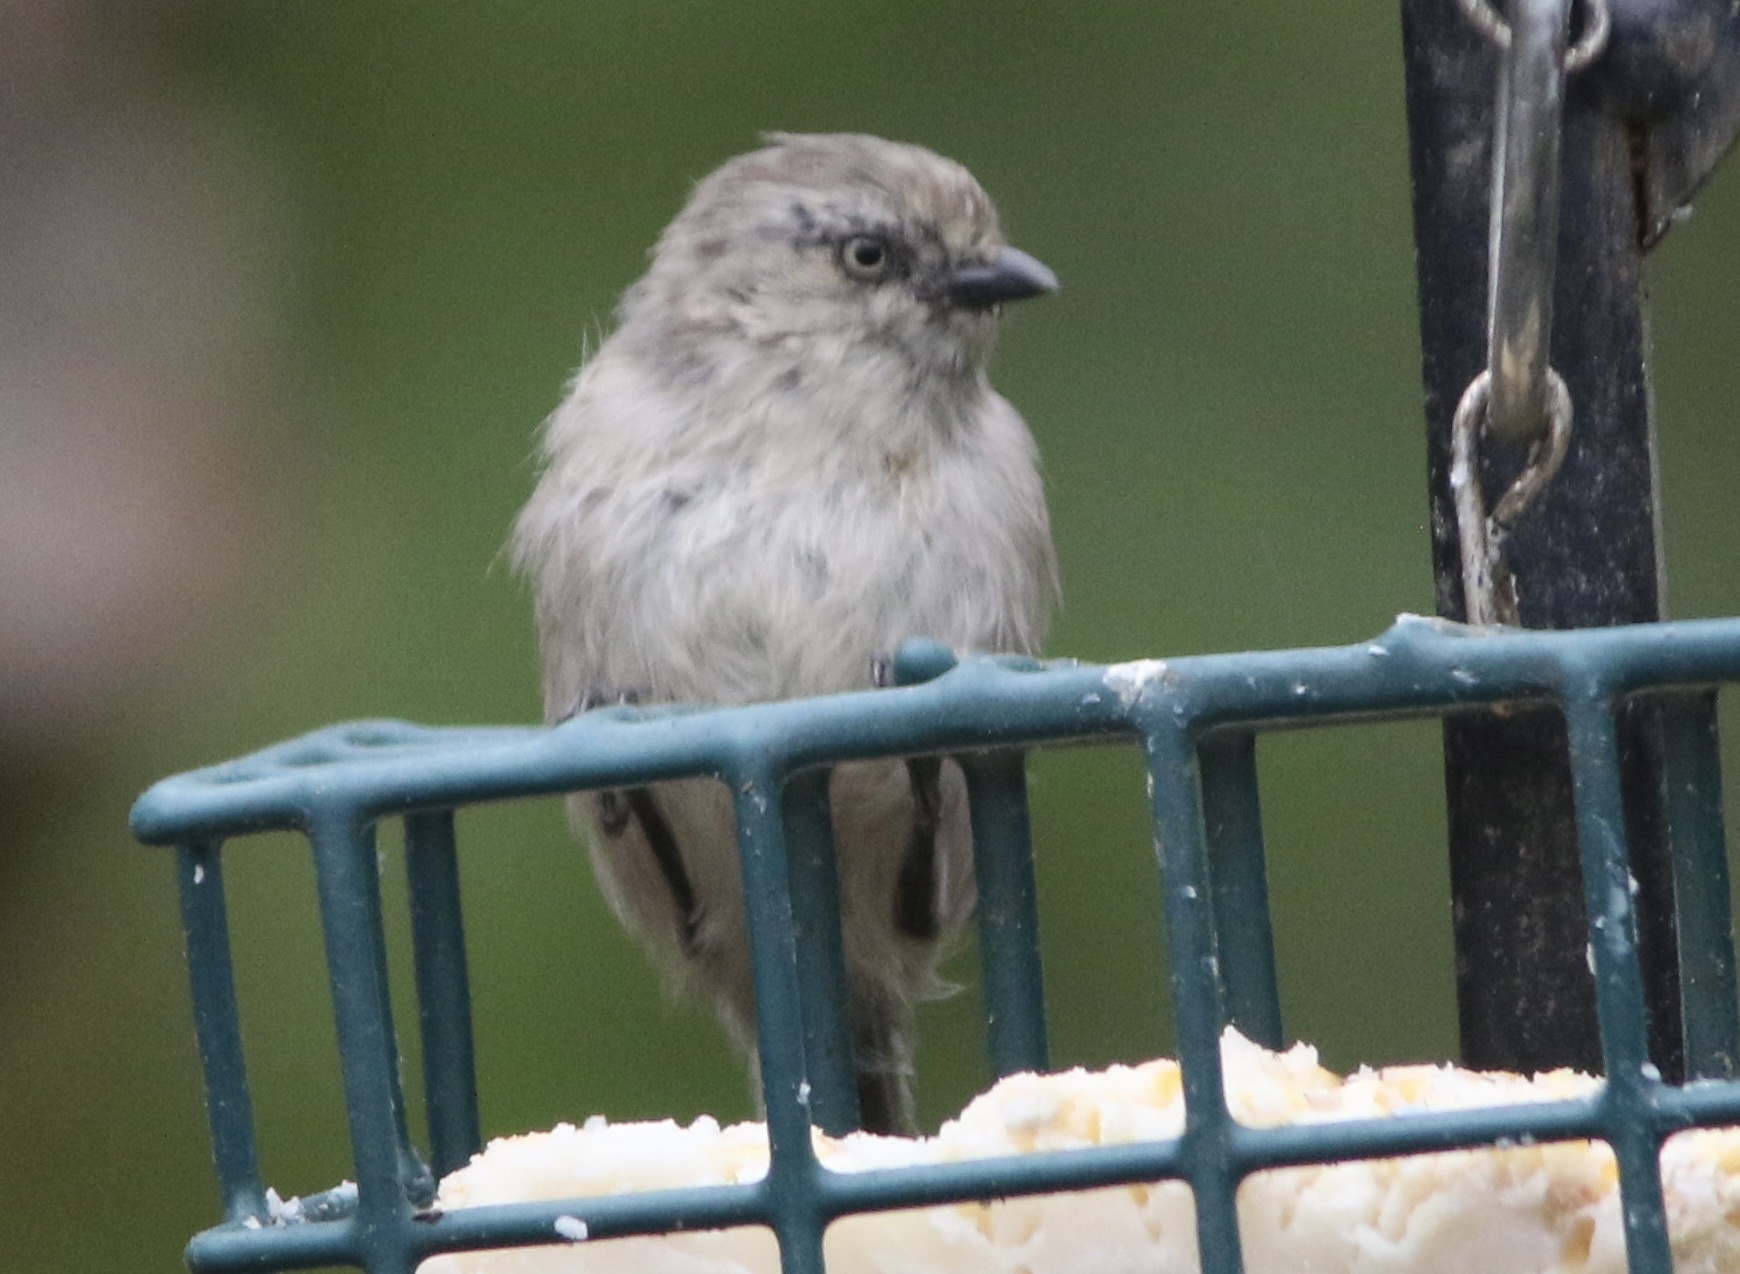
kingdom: Animalia
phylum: Chordata
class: Aves
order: Passeriformes
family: Aegithalidae
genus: Psaltriparus
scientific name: Psaltriparus minimus
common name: American bushtit
